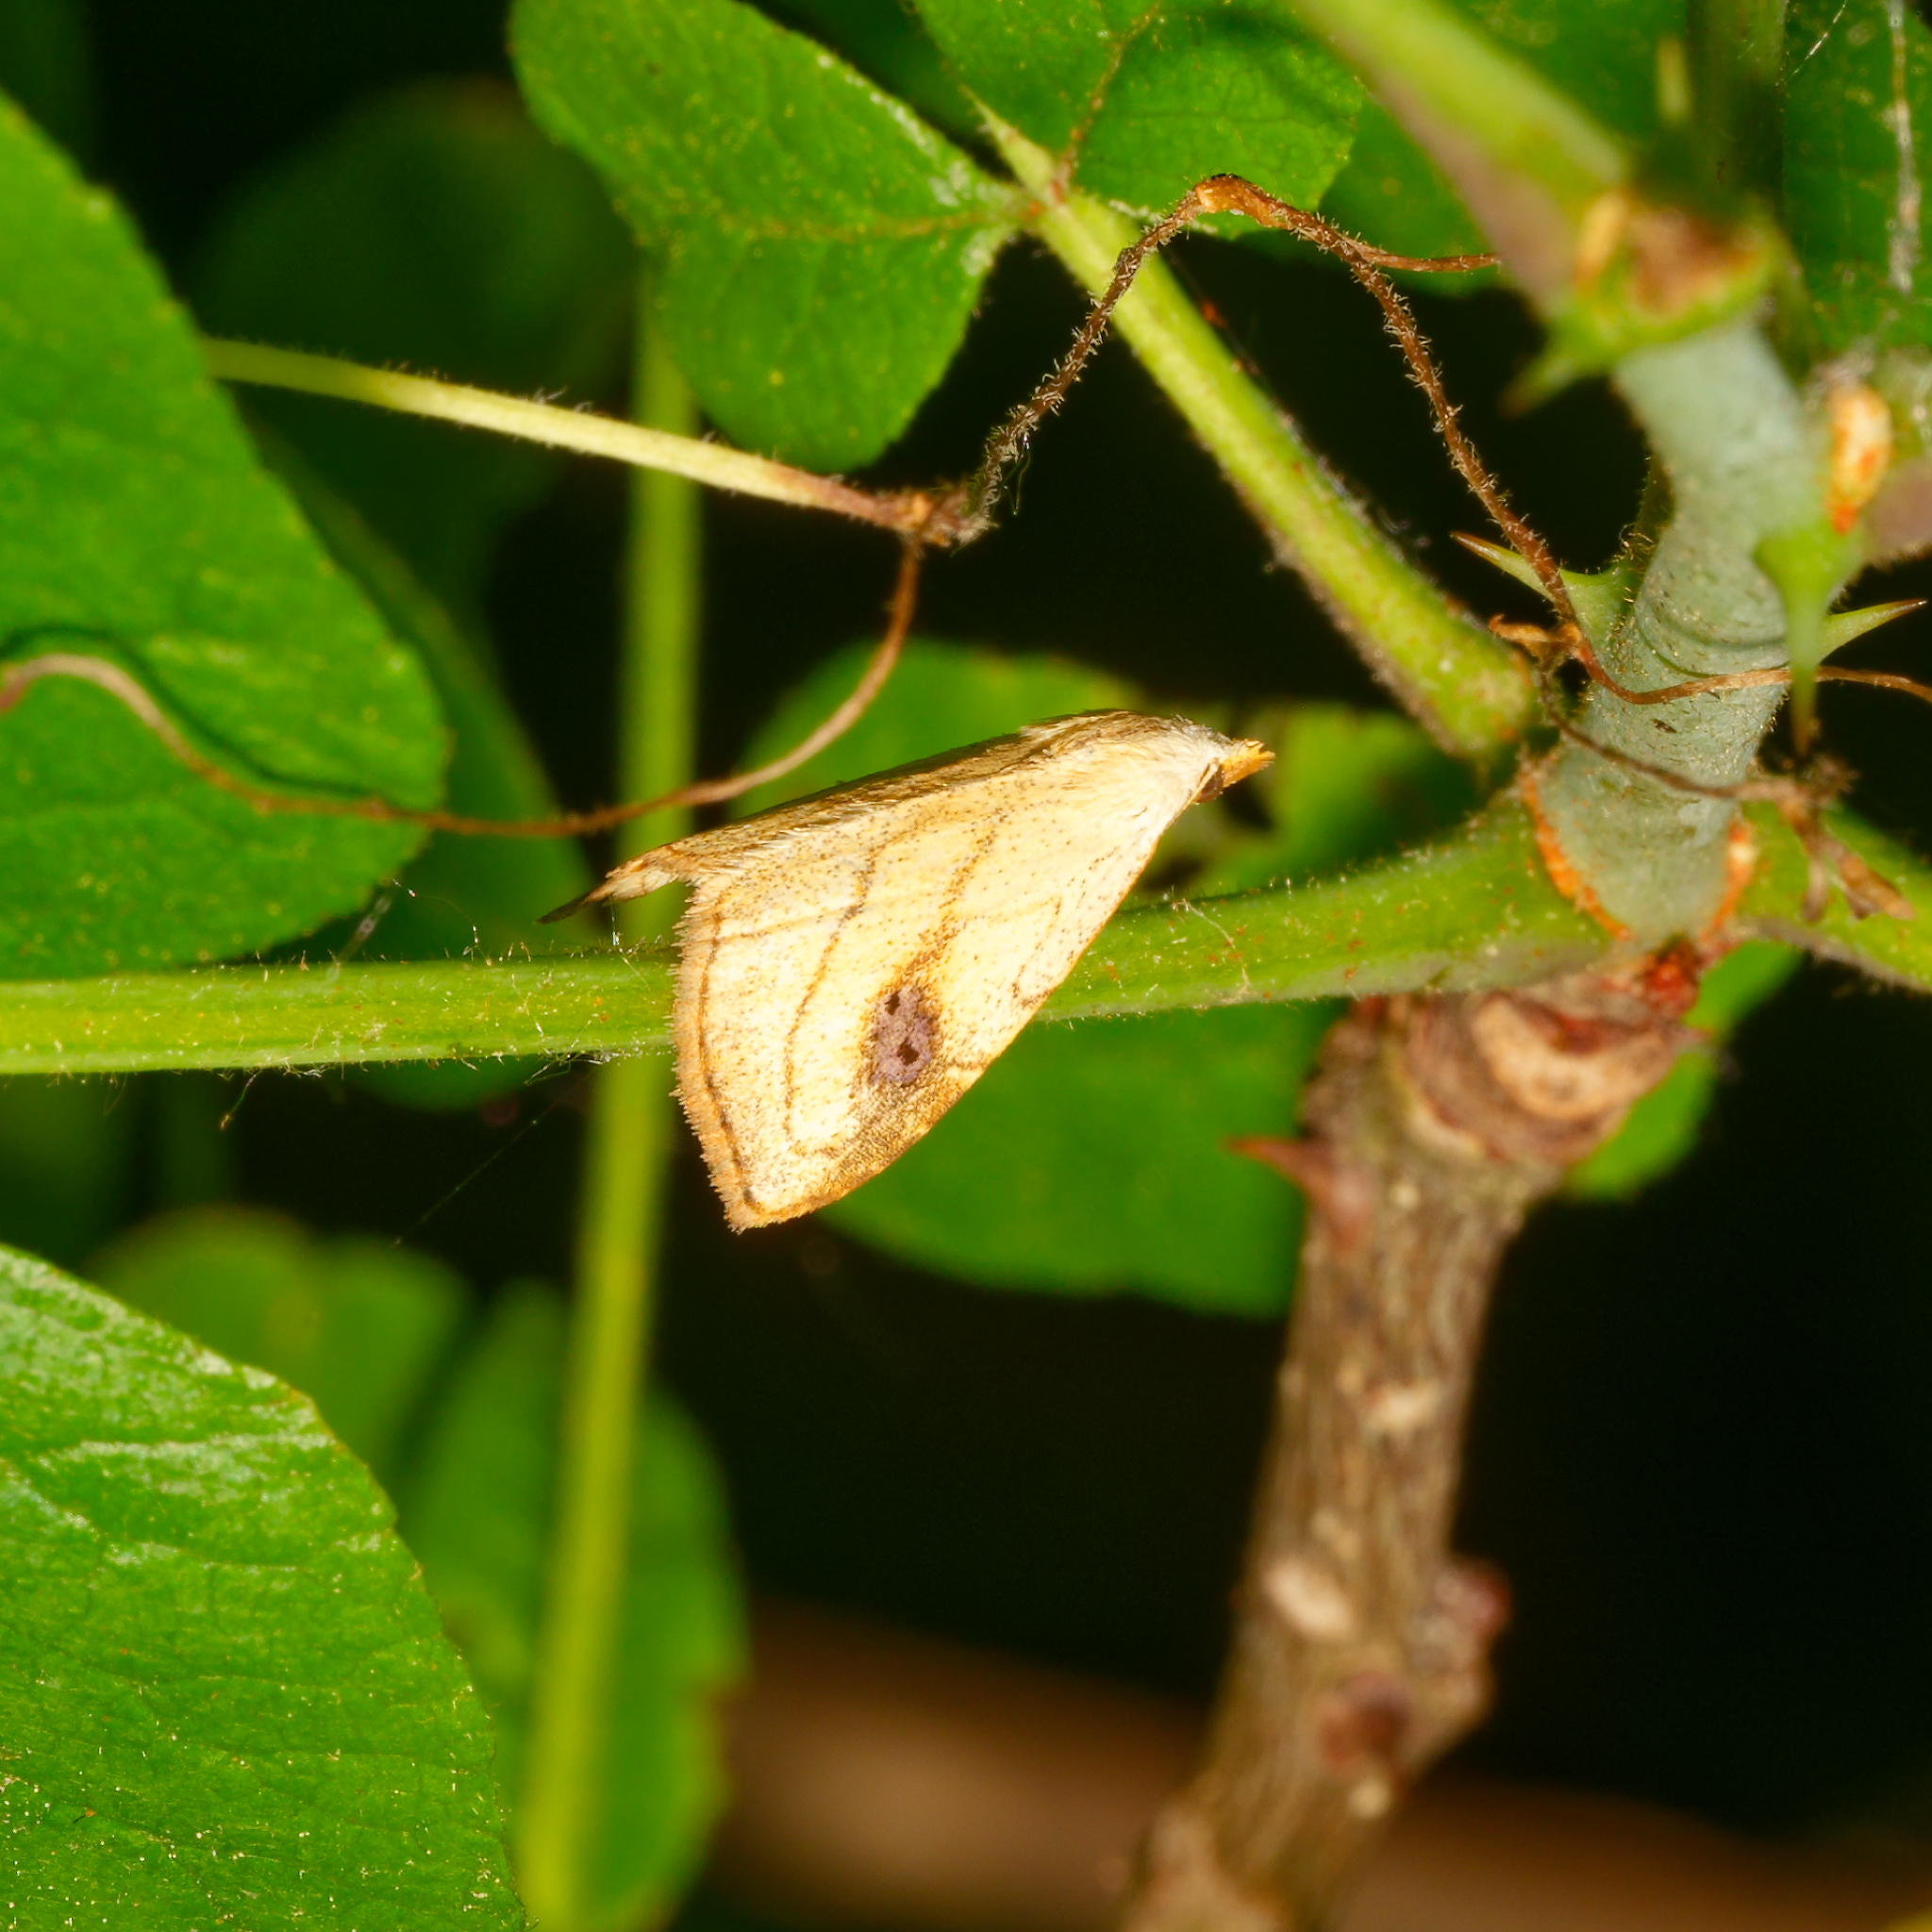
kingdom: Animalia
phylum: Arthropoda
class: Insecta
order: Lepidoptera
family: Erebidae
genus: Rivula
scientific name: Rivula propinqualis
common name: Spotted grass moth
